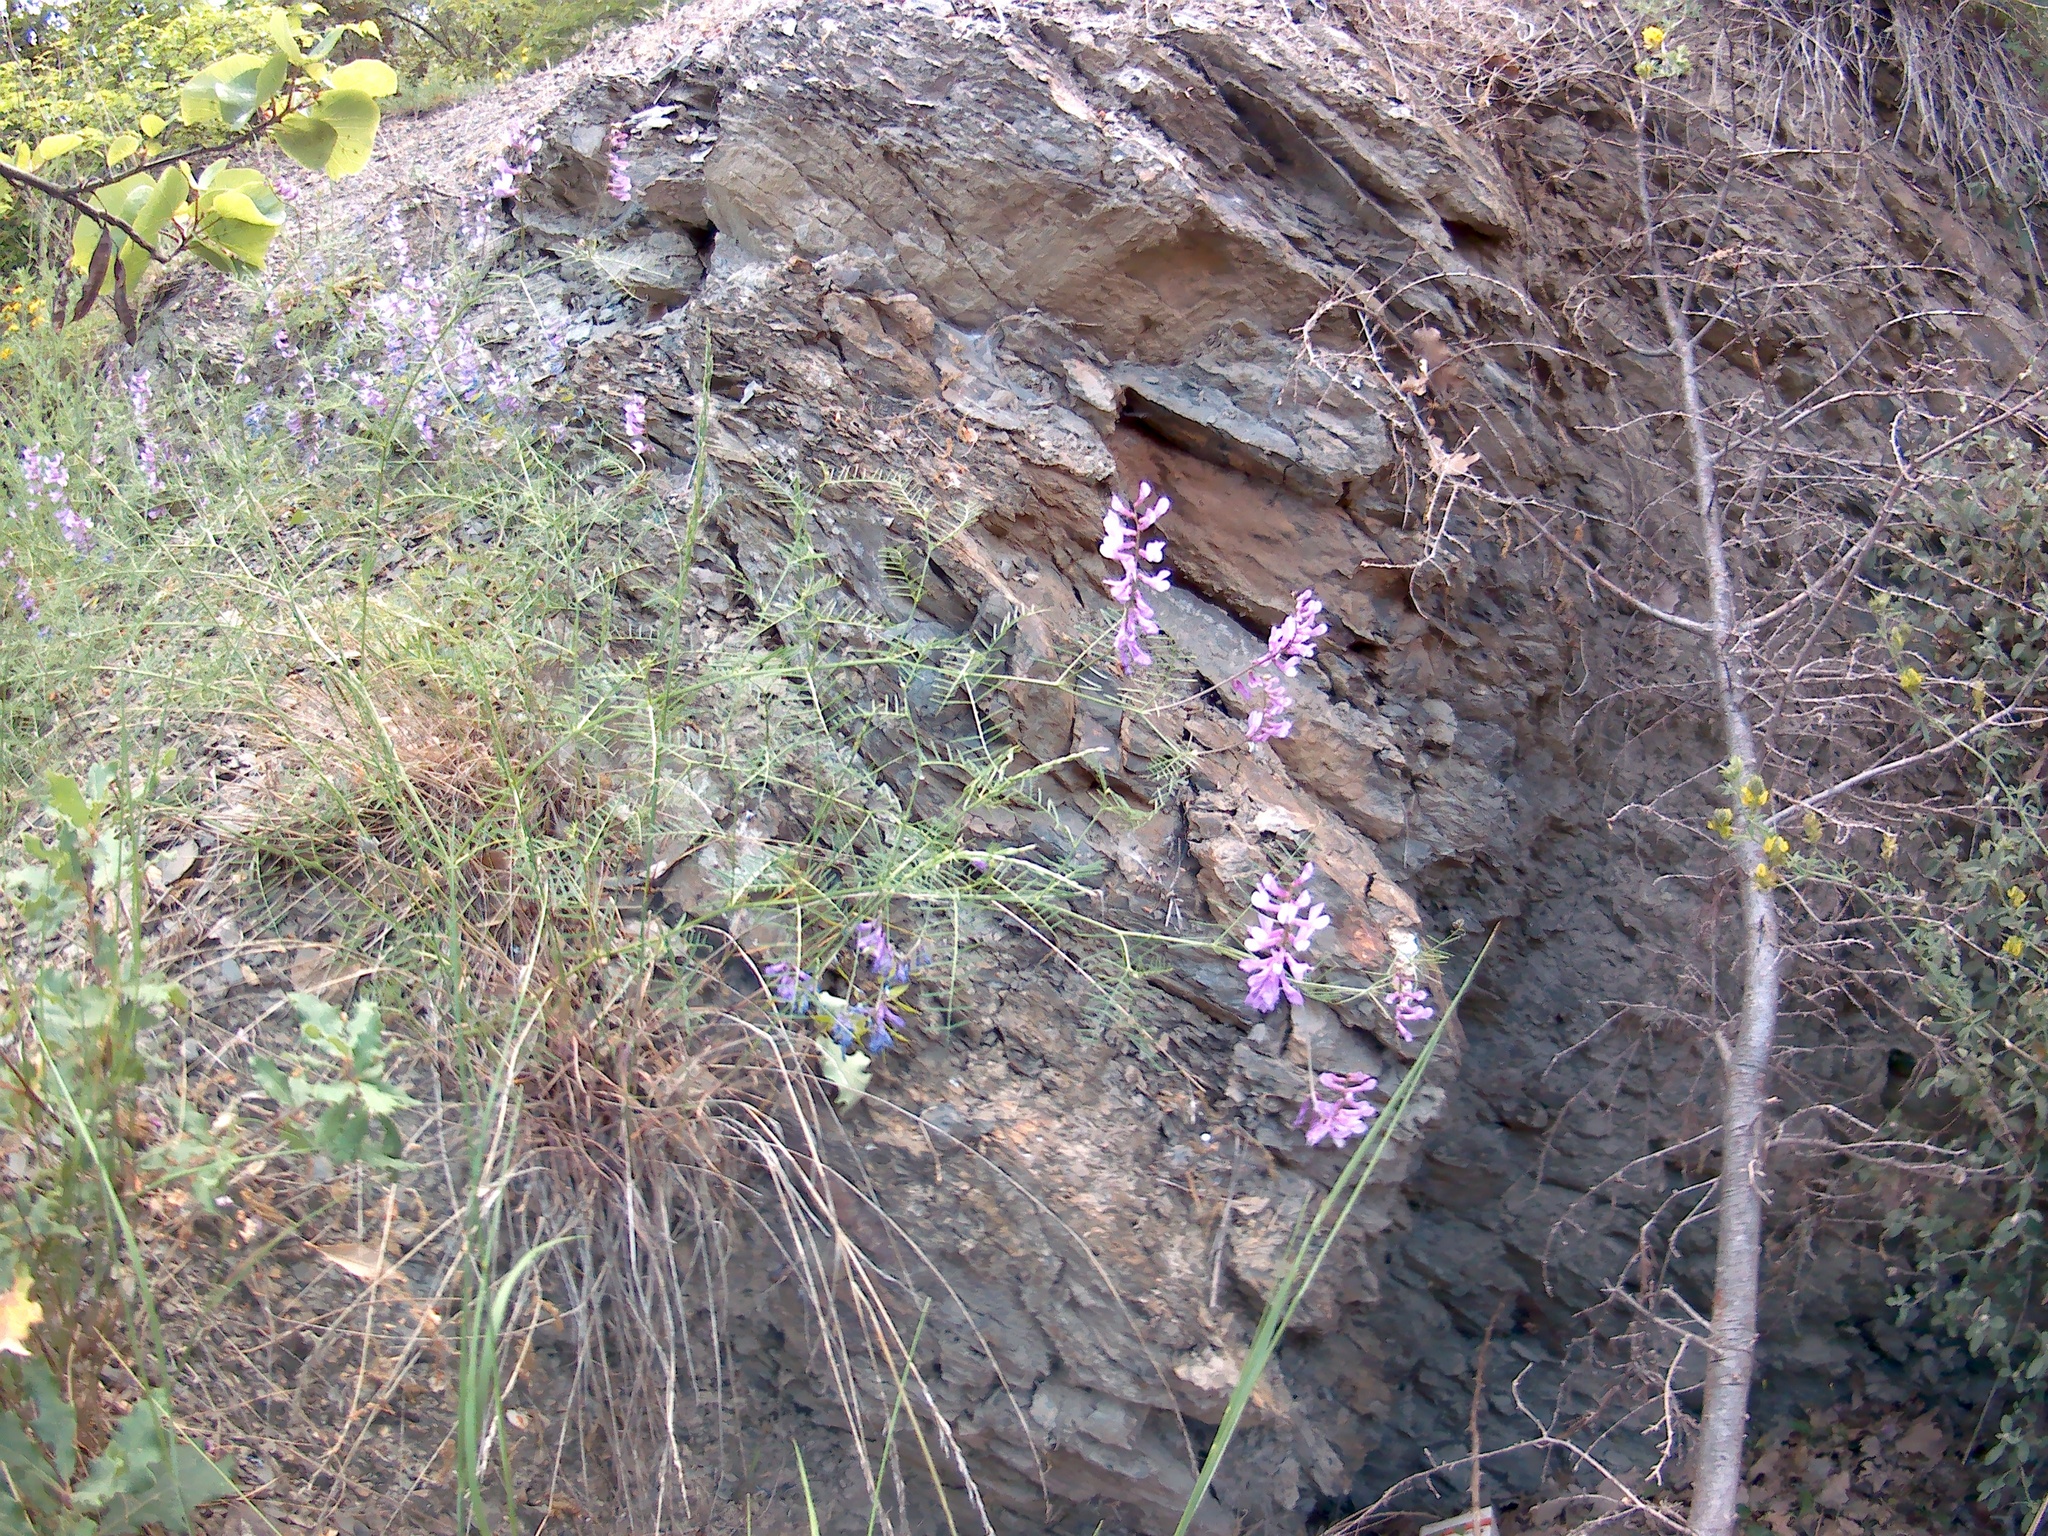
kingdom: Plantae
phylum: Tracheophyta
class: Magnoliopsida
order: Fabales
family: Fabaceae
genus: Vicia
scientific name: Vicia dalmatica
